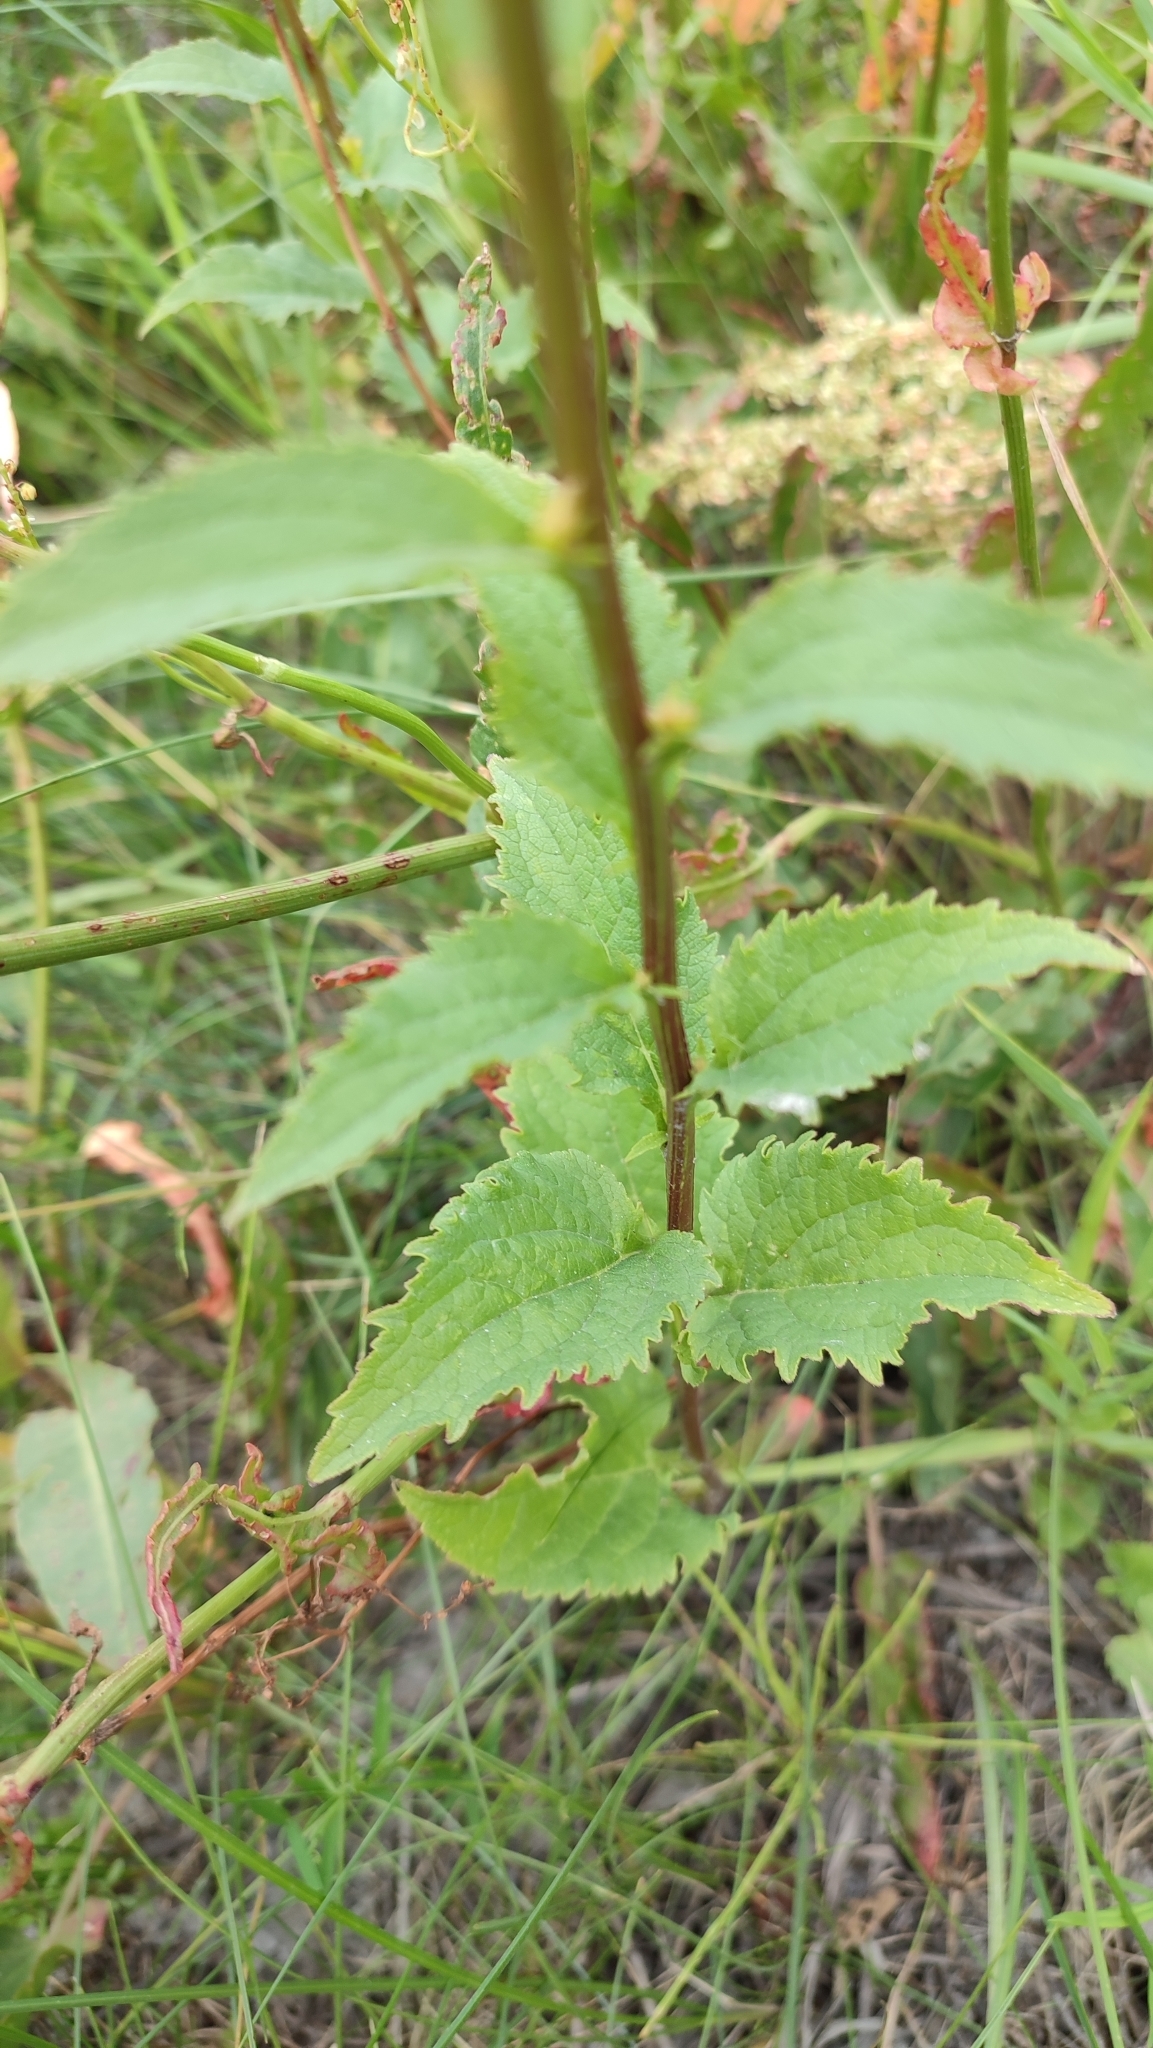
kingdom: Plantae
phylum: Tracheophyta
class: Magnoliopsida
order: Asterales
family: Campanulaceae
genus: Campanula
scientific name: Campanula rapunculoides
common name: Creeping bellflower
